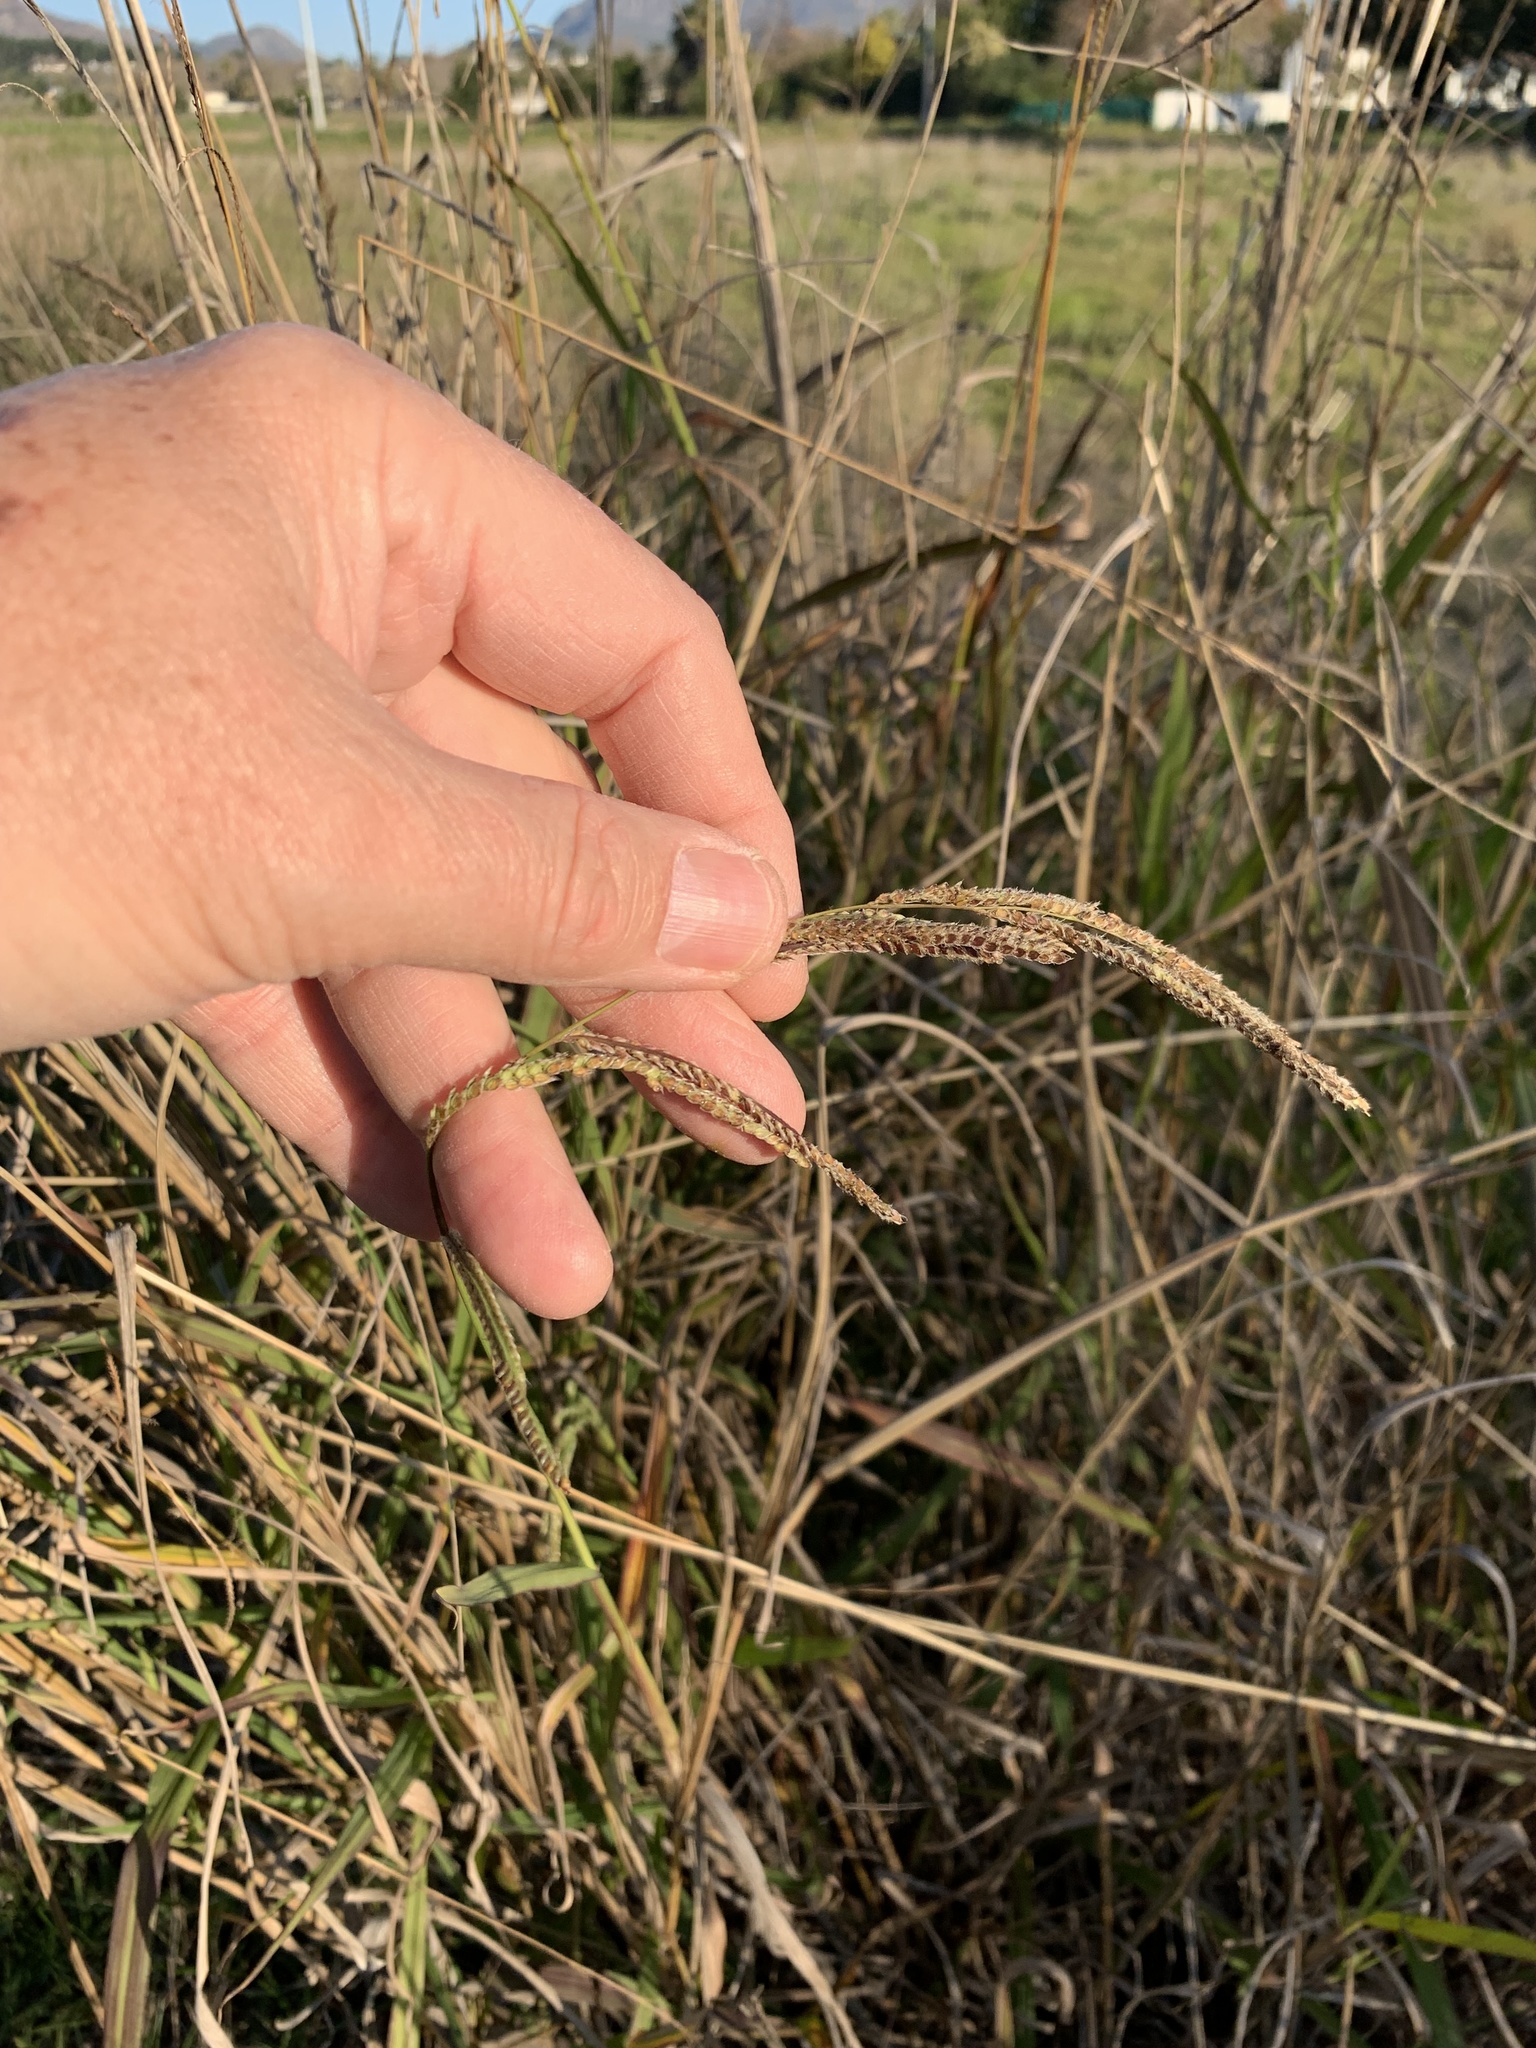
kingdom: Plantae
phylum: Tracheophyta
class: Liliopsida
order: Poales
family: Poaceae
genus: Paspalum
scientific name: Paspalum urvillei
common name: Vasey's grass
